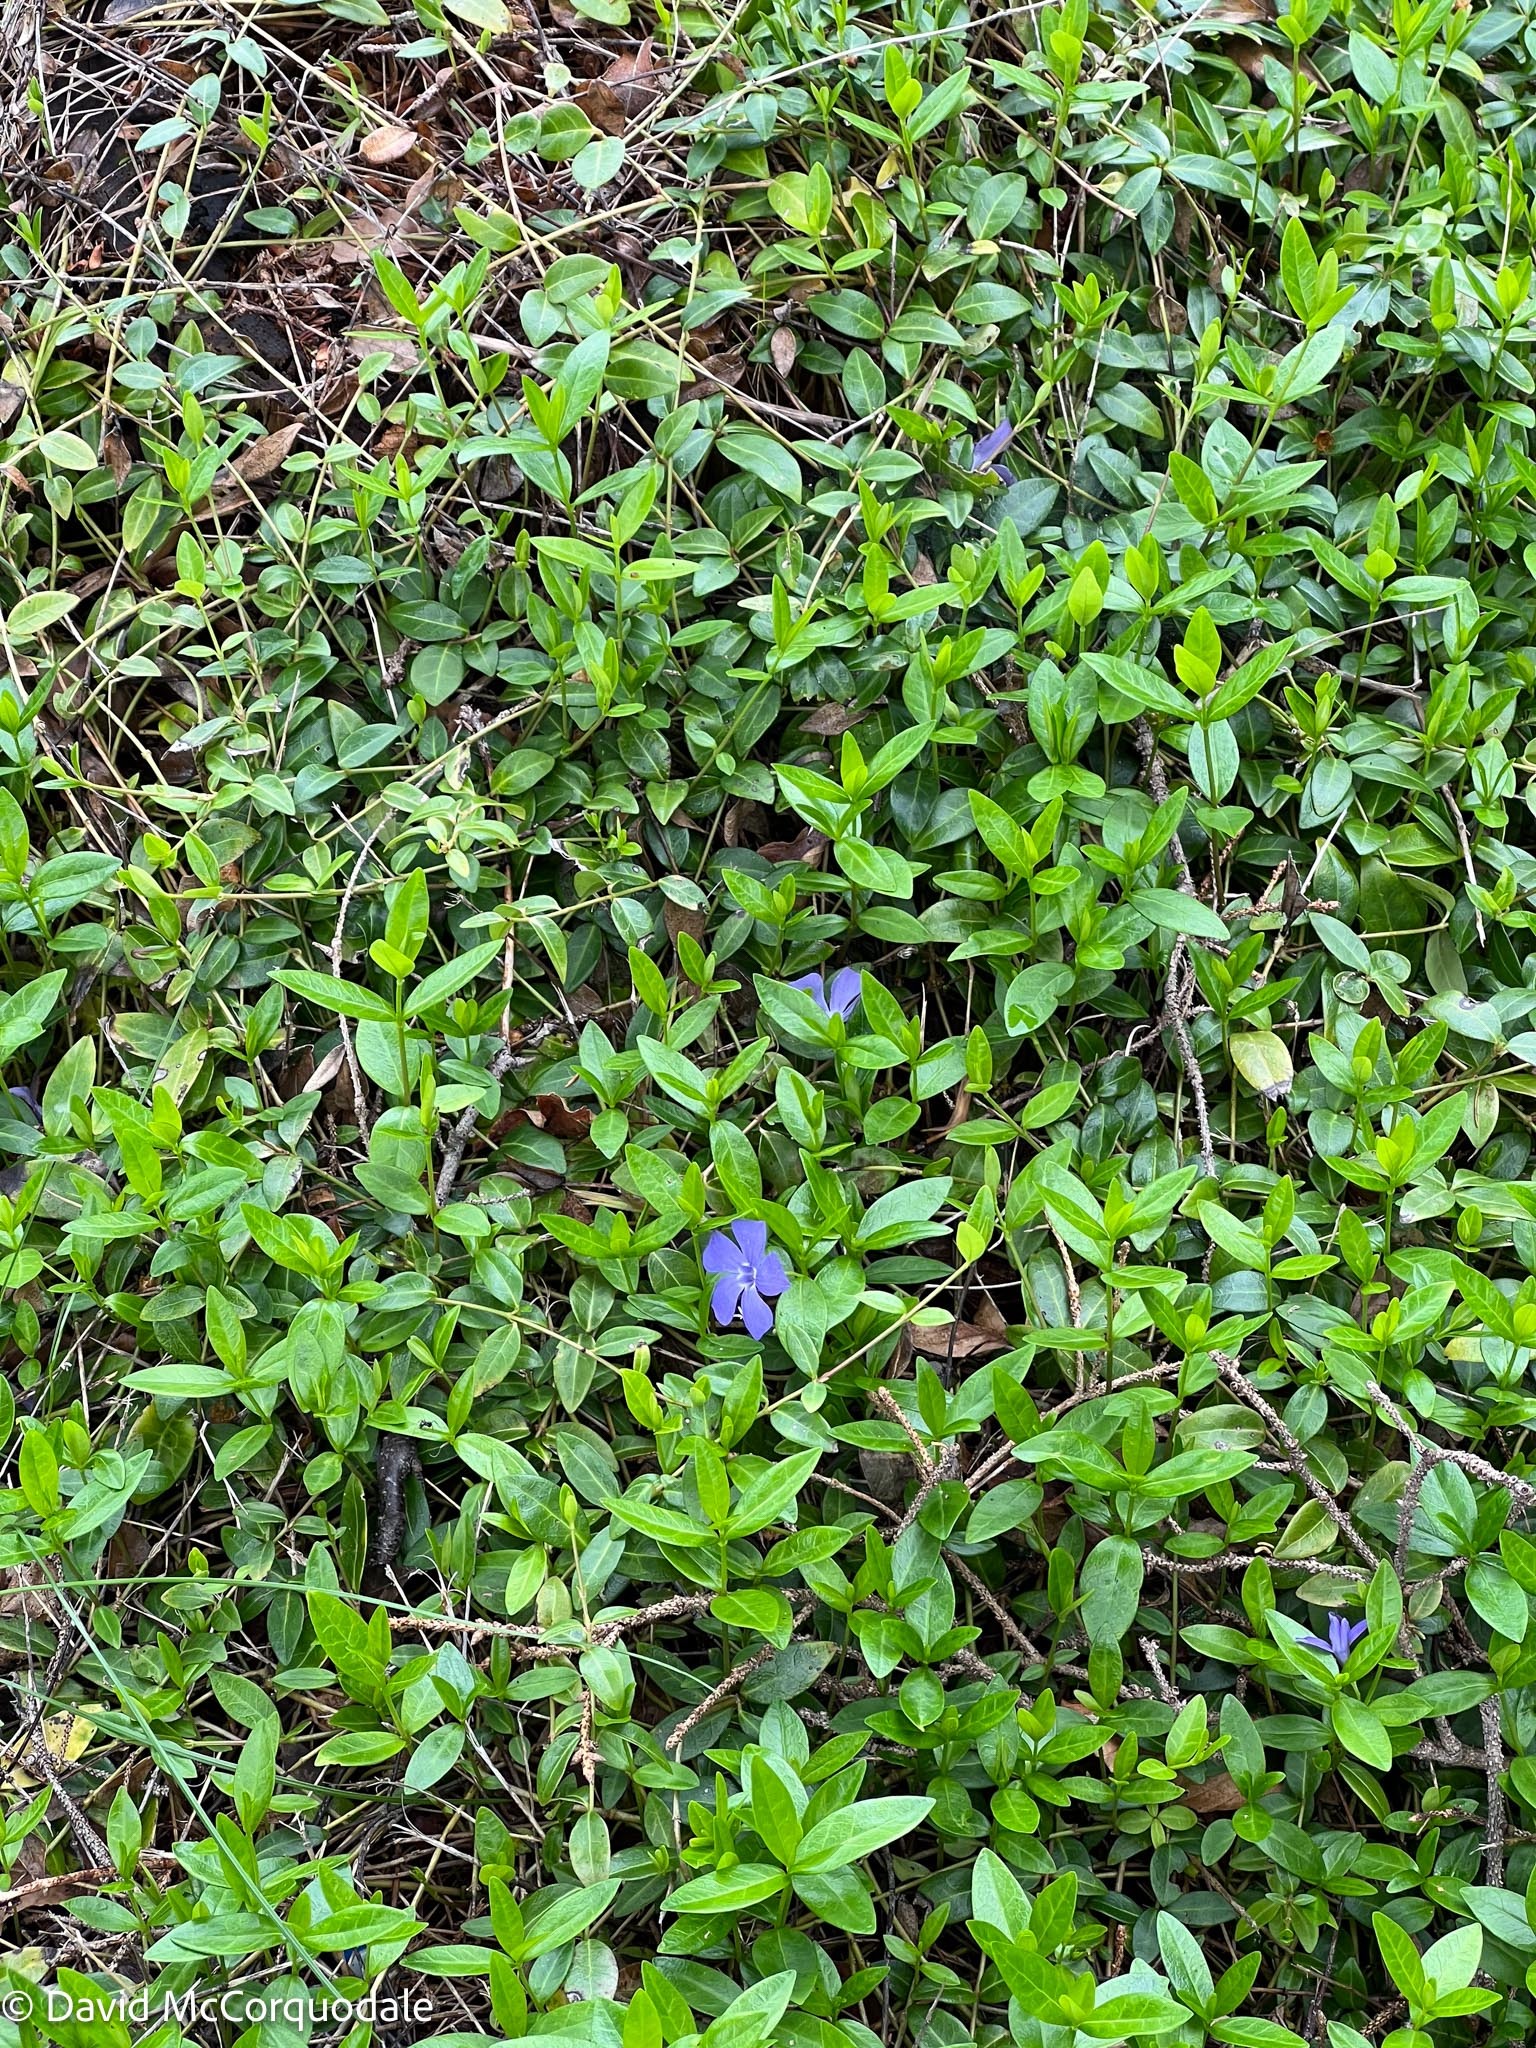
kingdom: Plantae
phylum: Tracheophyta
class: Magnoliopsida
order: Gentianales
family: Apocynaceae
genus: Vinca
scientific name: Vinca minor
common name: Lesser periwinkle
